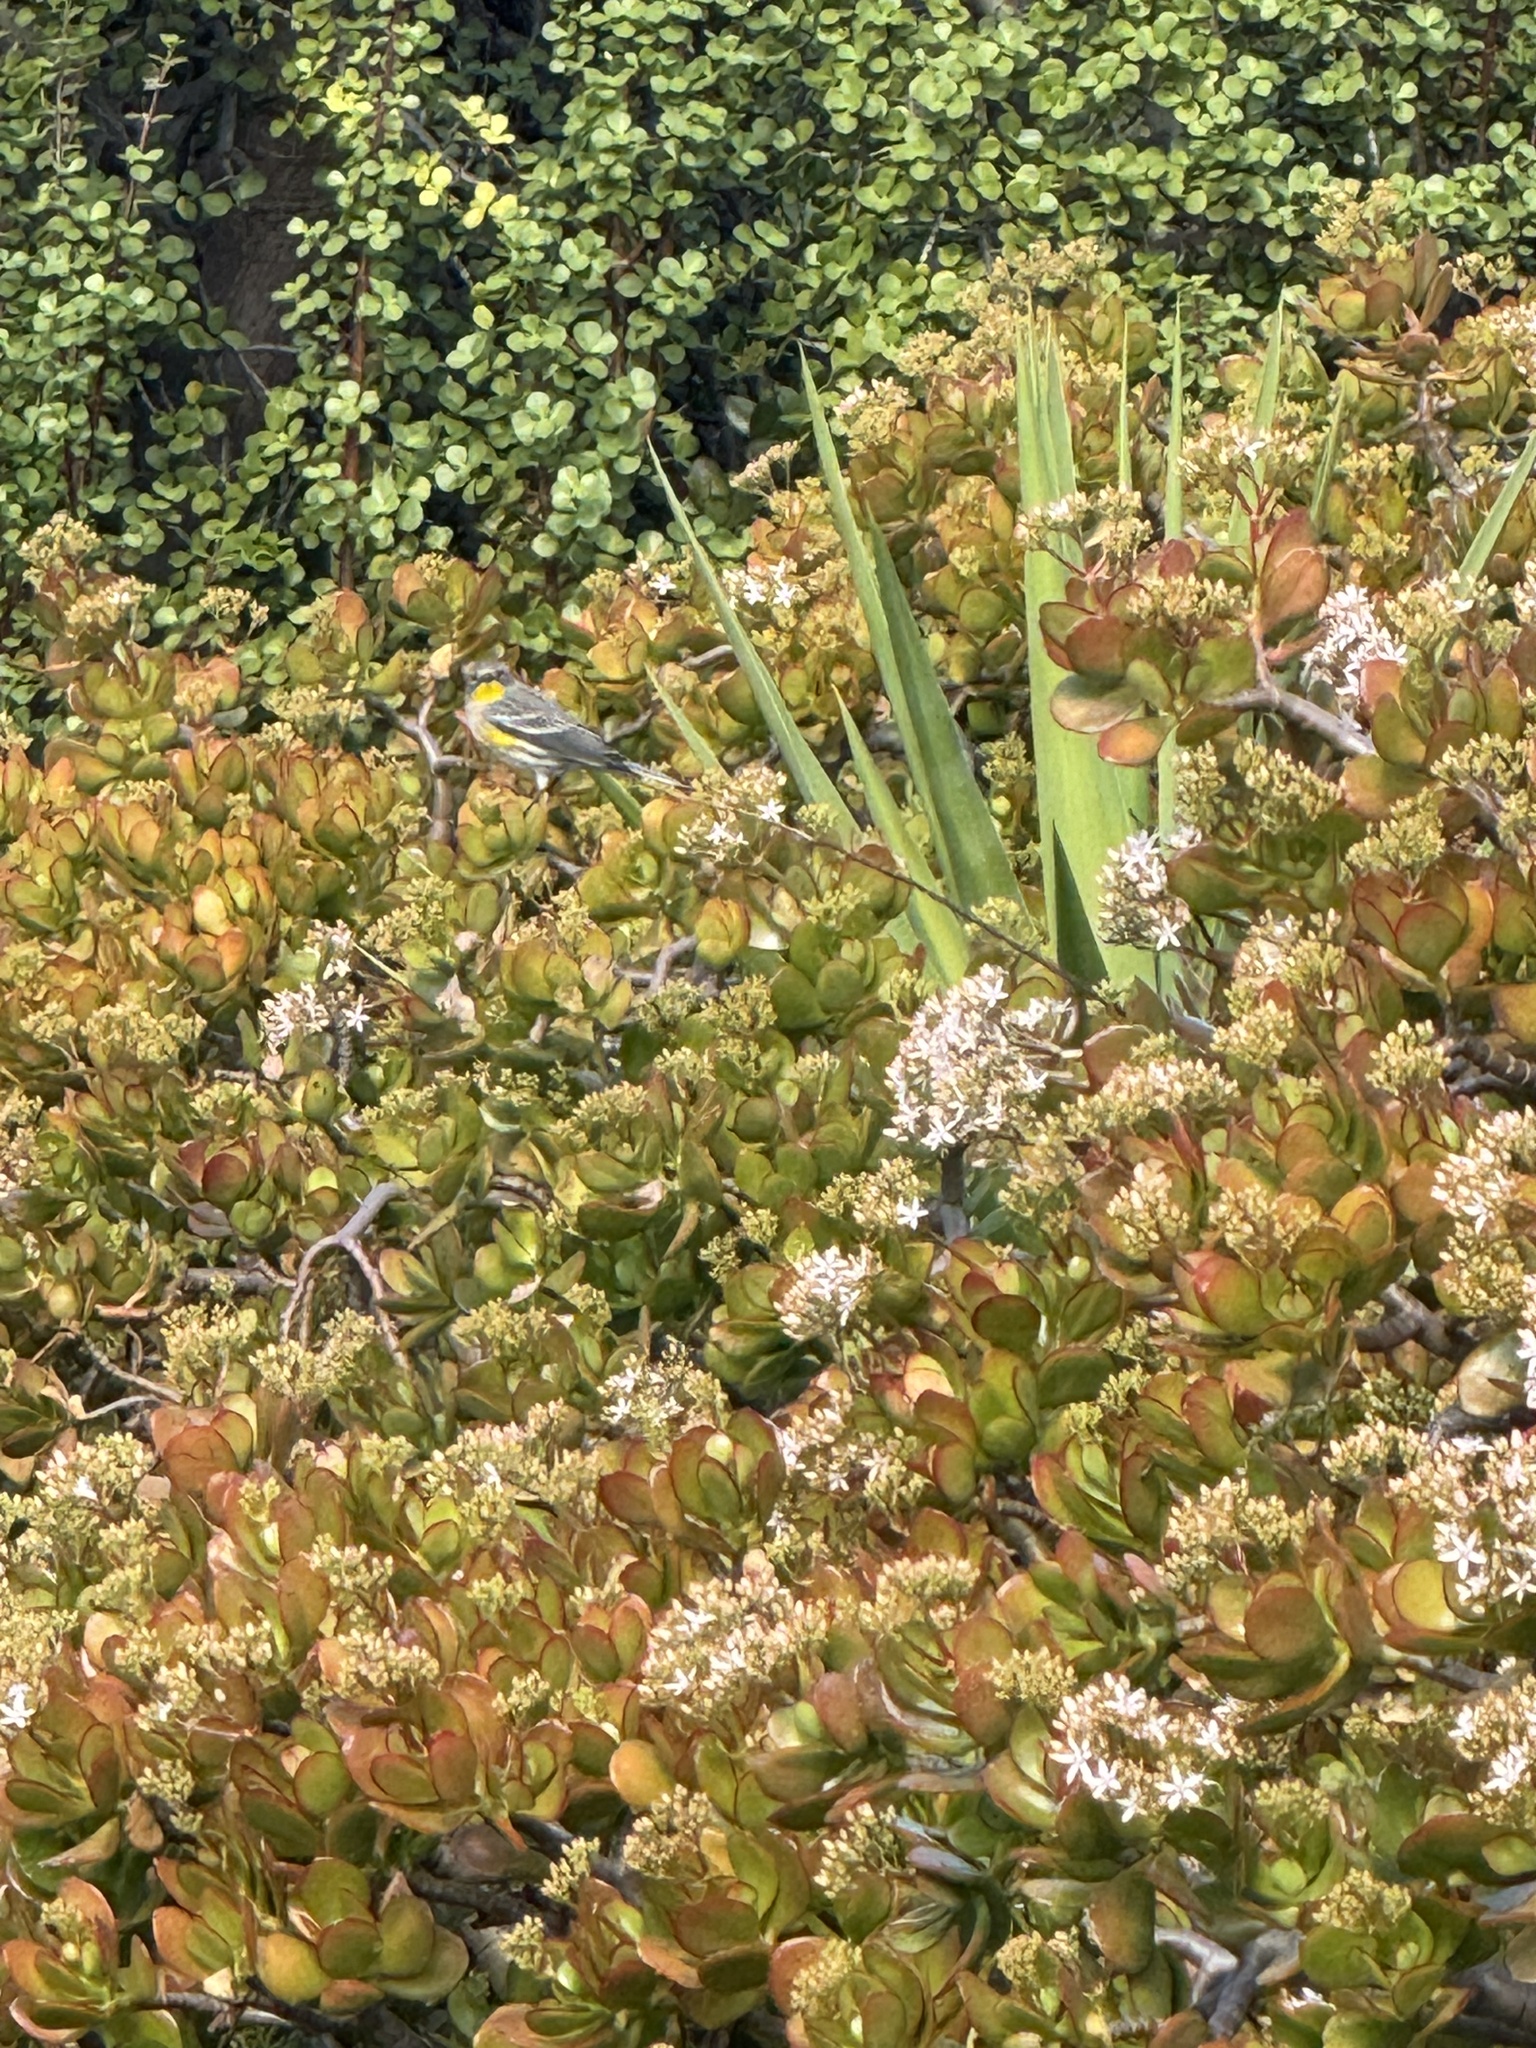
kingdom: Animalia
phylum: Chordata
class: Aves
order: Passeriformes
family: Parulidae
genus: Setophaga
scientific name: Setophaga coronata
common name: Myrtle warbler
